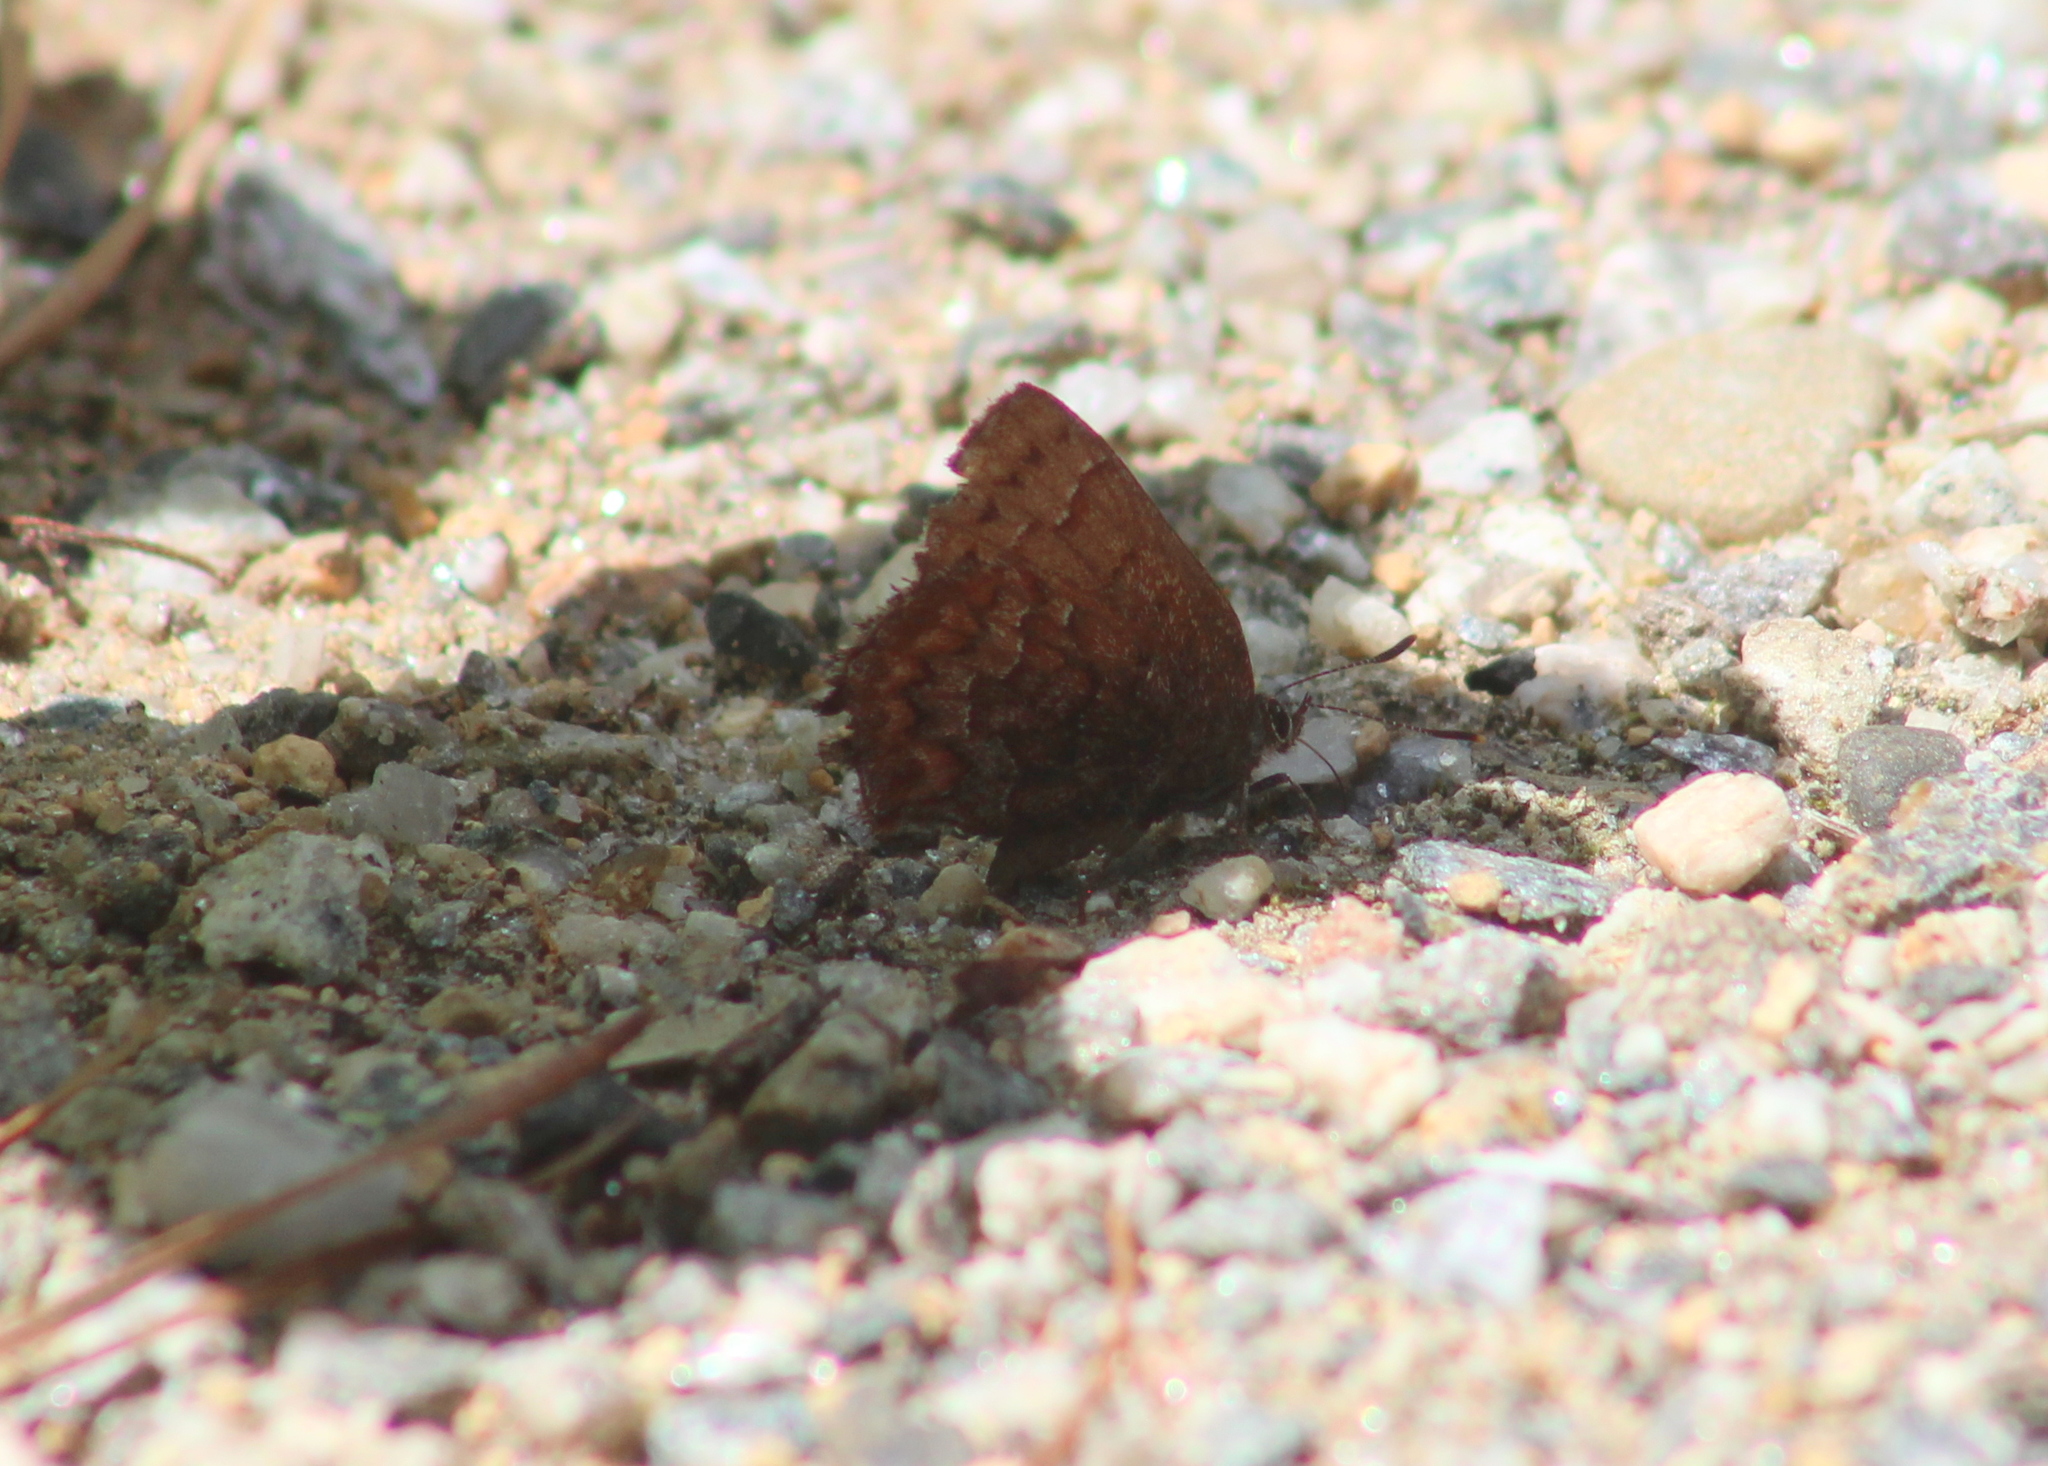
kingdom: Animalia
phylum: Arthropoda
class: Insecta
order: Lepidoptera
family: Lycaenidae
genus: Incisalia
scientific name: Incisalia niphon
